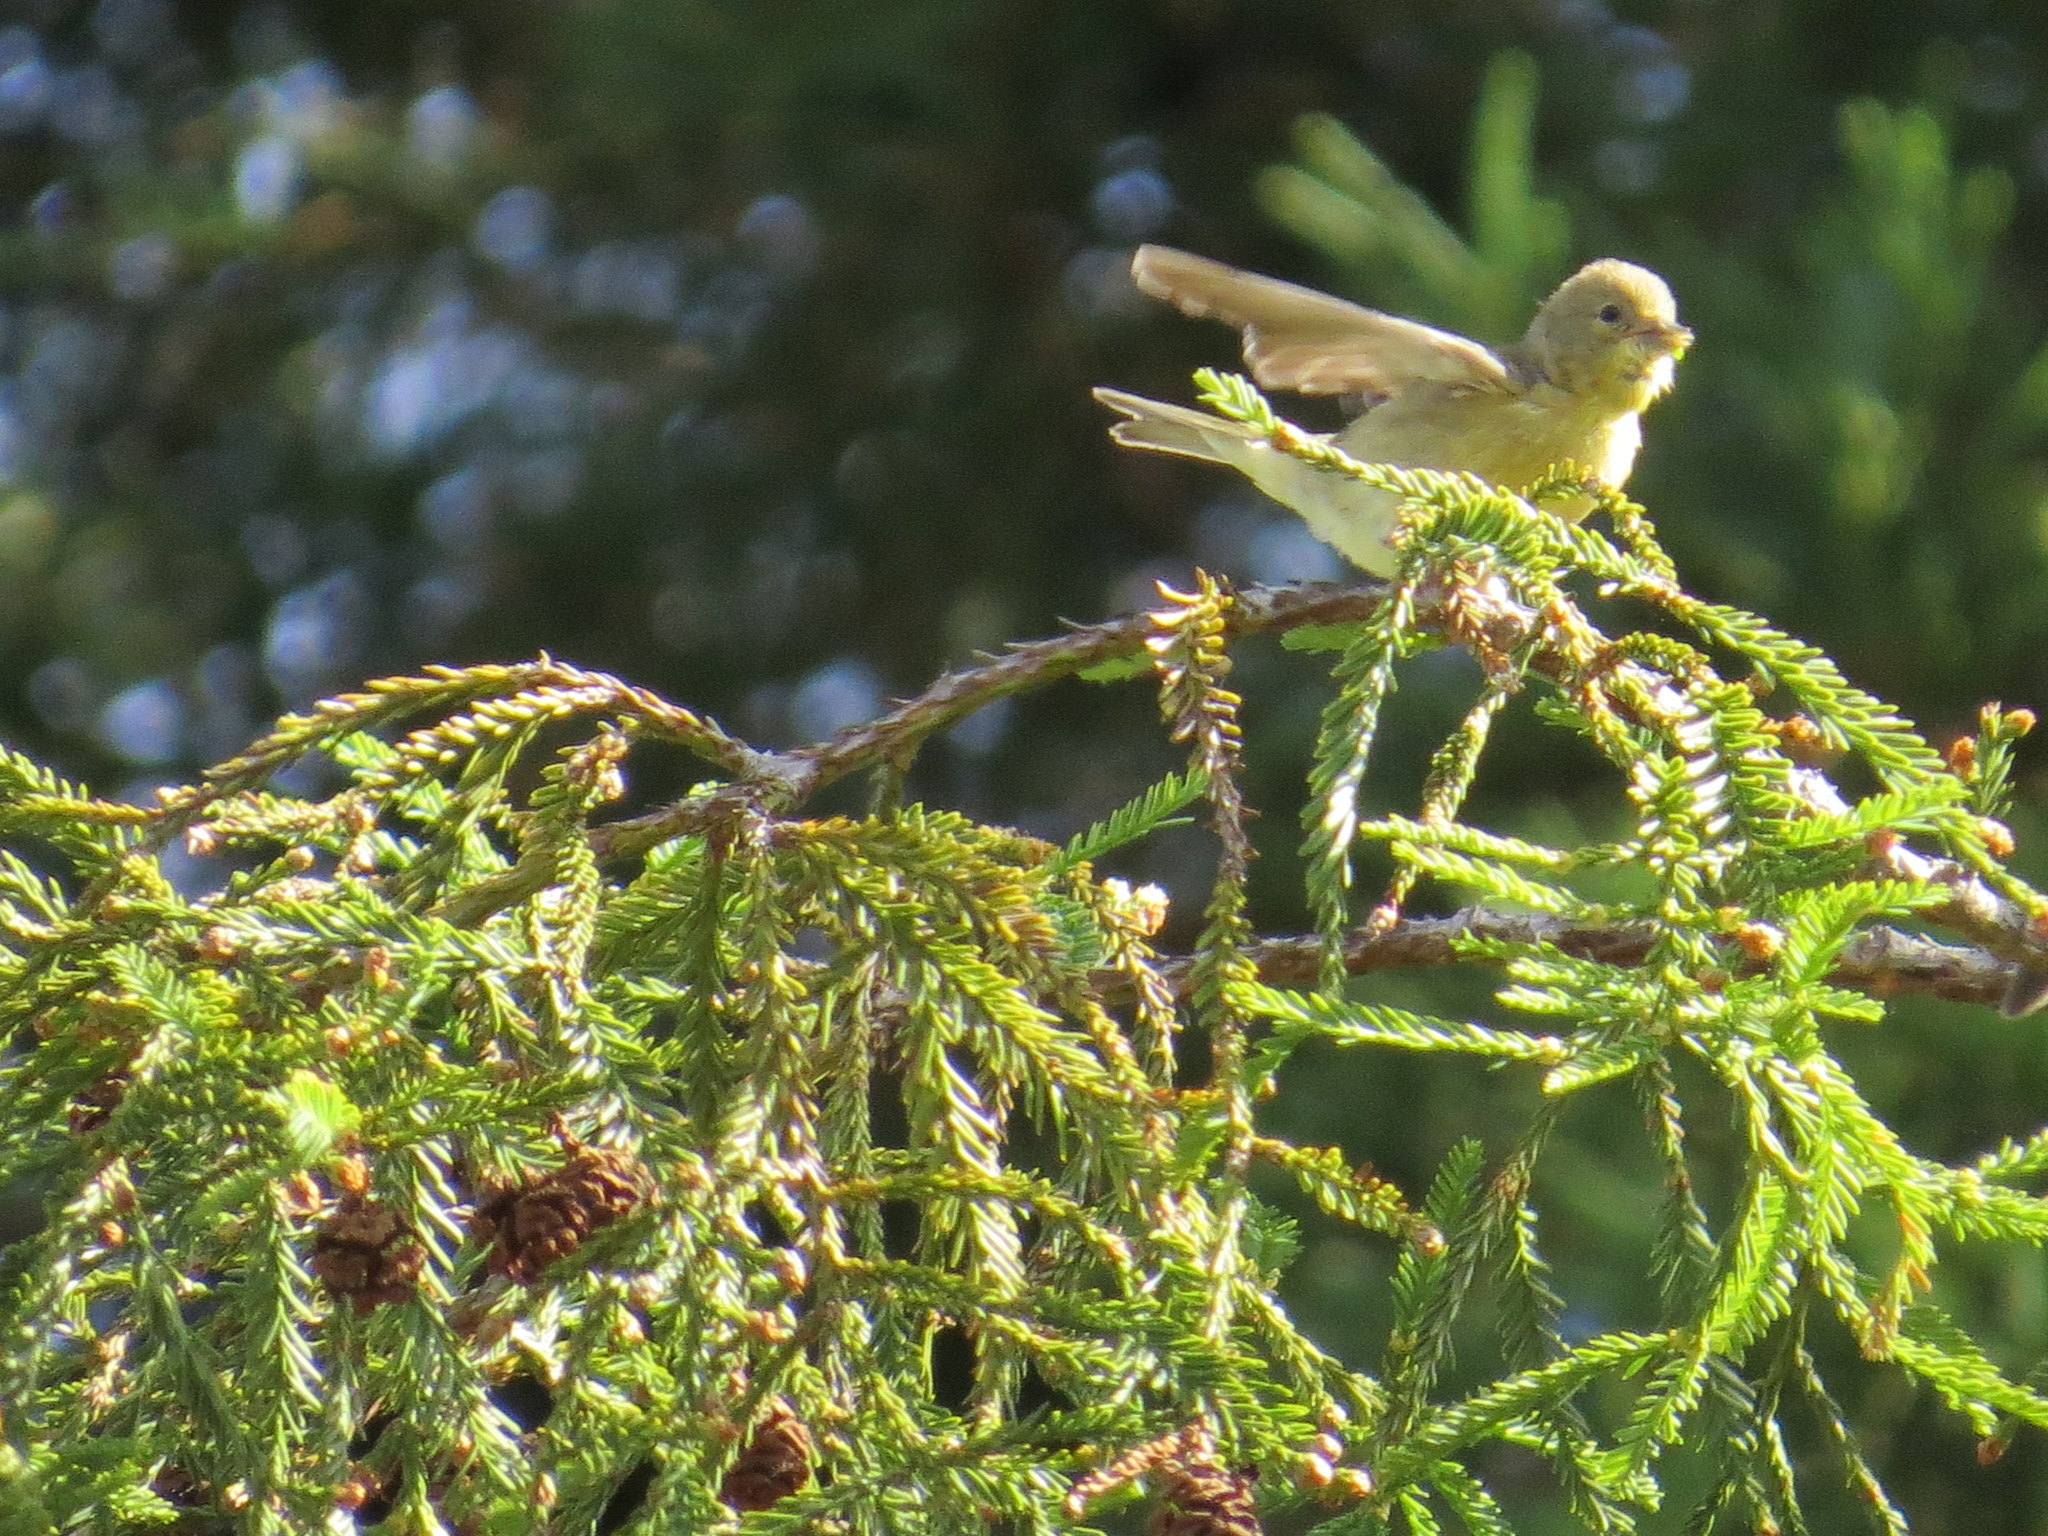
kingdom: Animalia
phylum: Chordata
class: Aves
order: Passeriformes
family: Fringillidae
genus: Spinus
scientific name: Spinus psaltria
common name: Lesser goldfinch
